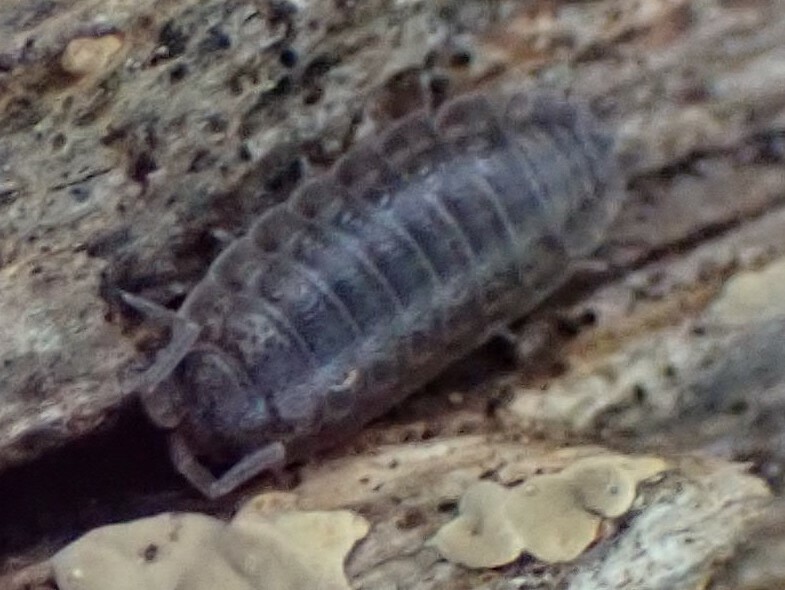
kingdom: Animalia
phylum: Arthropoda
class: Malacostraca
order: Isopoda
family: Trachelipodidae
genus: Trachelipus
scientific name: Trachelipus rathkii
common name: Isopod
